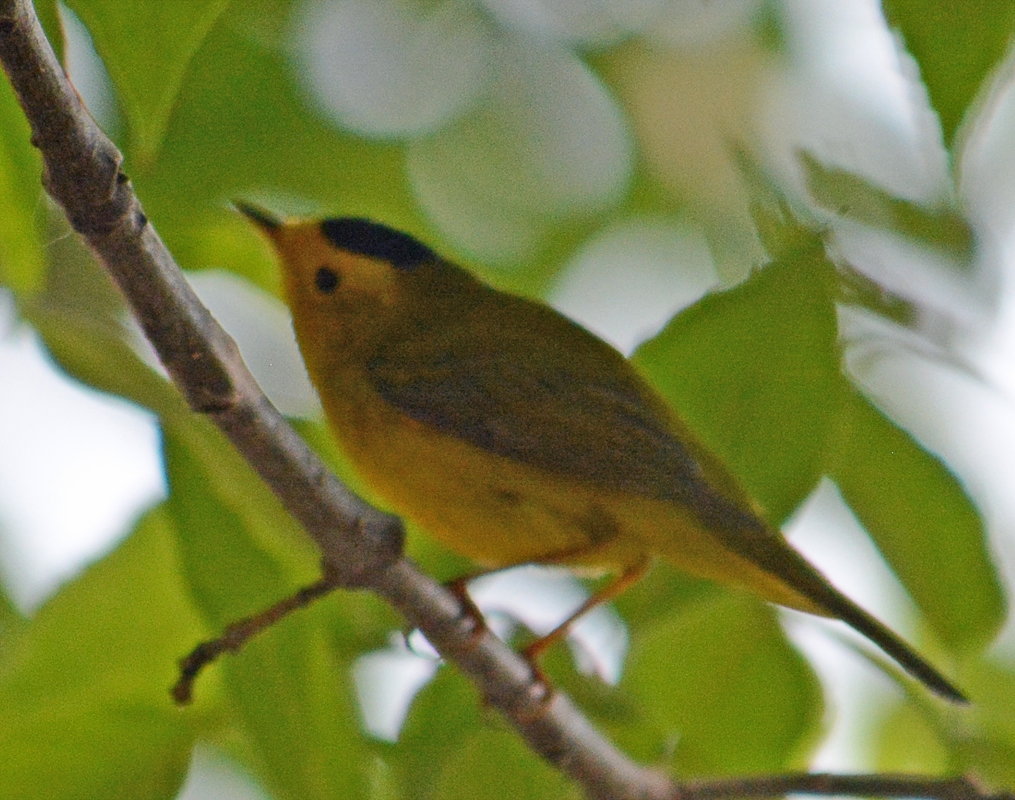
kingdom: Animalia
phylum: Chordata
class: Aves
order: Passeriformes
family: Parulidae
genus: Cardellina
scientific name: Cardellina pusilla
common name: Wilson's warbler
